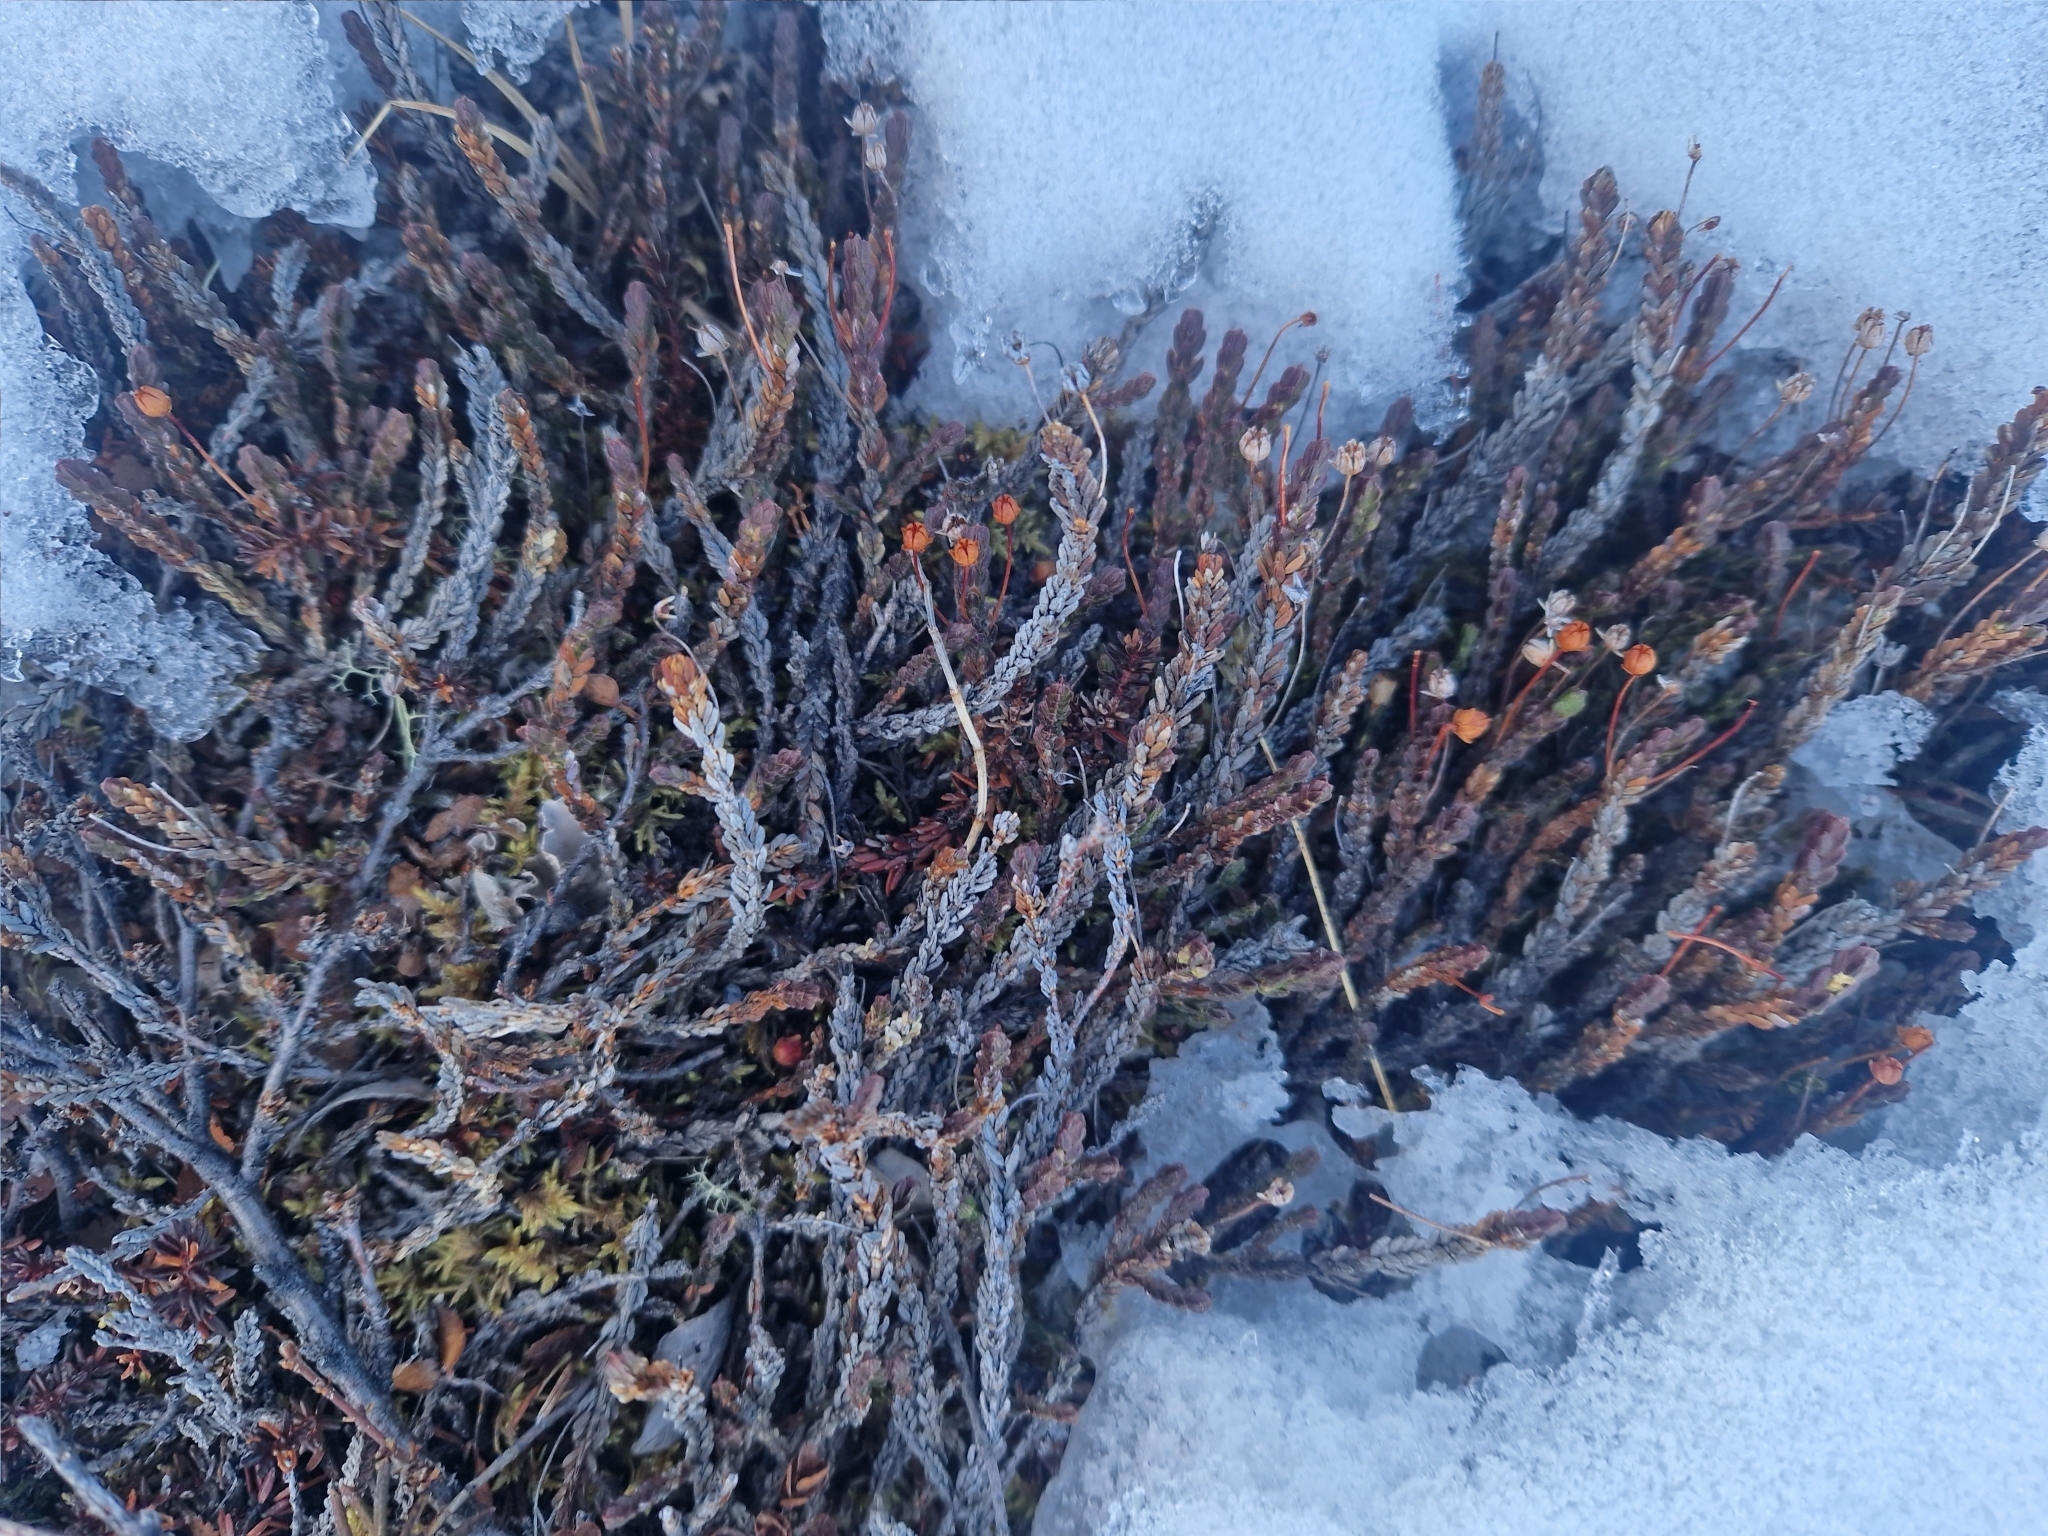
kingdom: Plantae
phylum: Tracheophyta
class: Magnoliopsida
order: Ericales
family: Ericaceae
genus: Cassiope
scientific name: Cassiope tetragona
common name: Arctic bell heather
